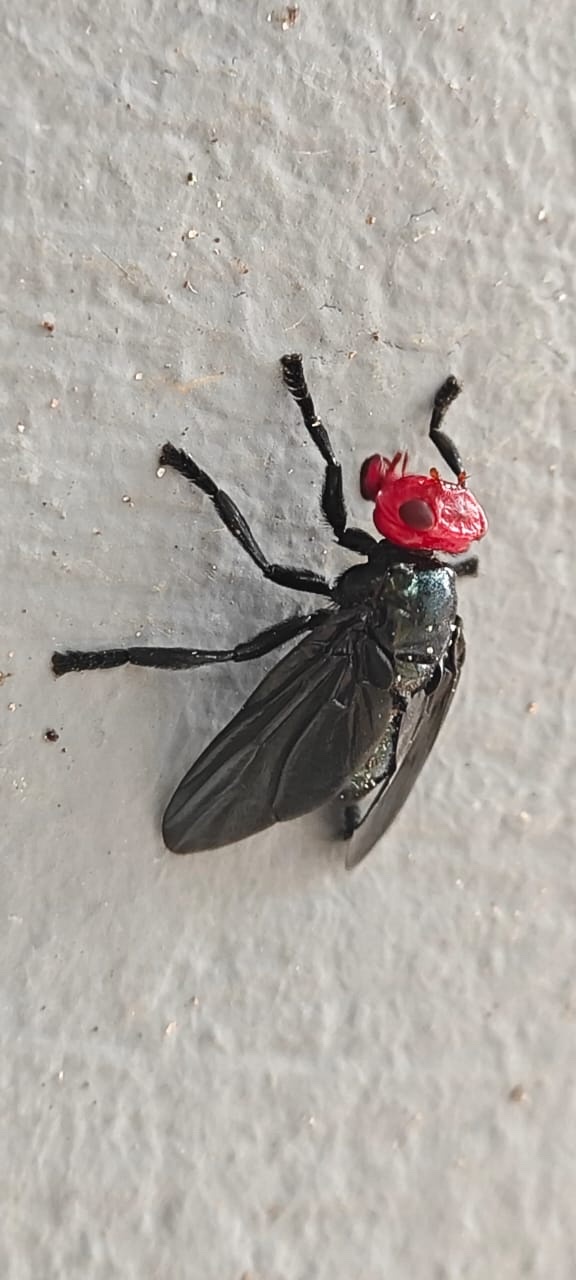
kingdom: Animalia
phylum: Arthropoda
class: Insecta
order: Diptera
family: Platystomatidae
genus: Bromophila
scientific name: Bromophila caffra
